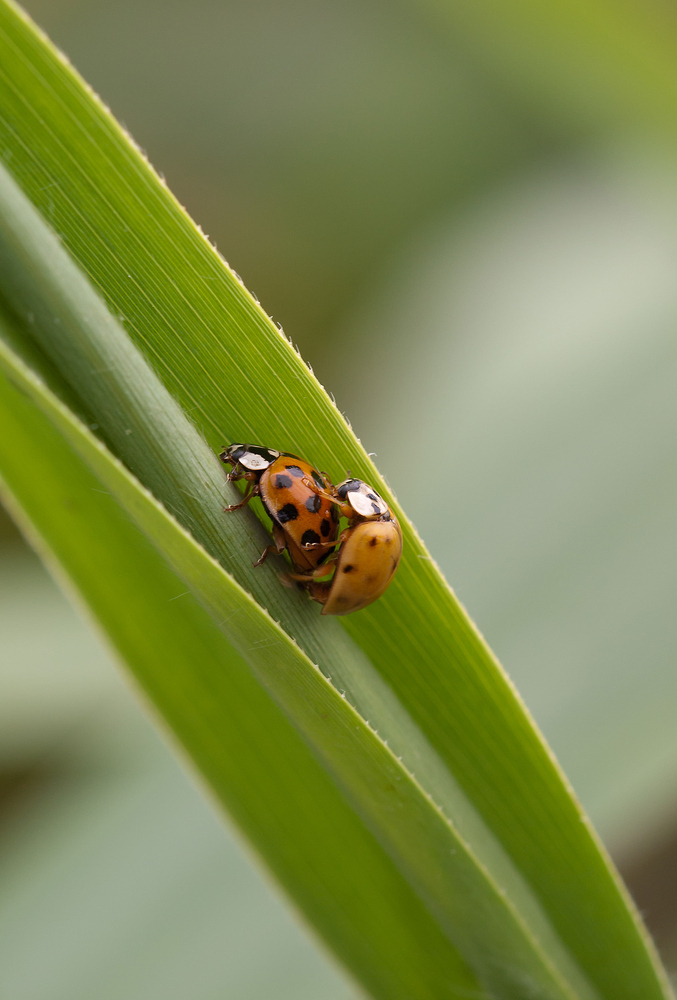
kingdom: Animalia
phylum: Arthropoda
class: Insecta
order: Coleoptera
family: Coccinellidae
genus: Harmonia
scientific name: Harmonia axyridis
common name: Harlequin ladybird
